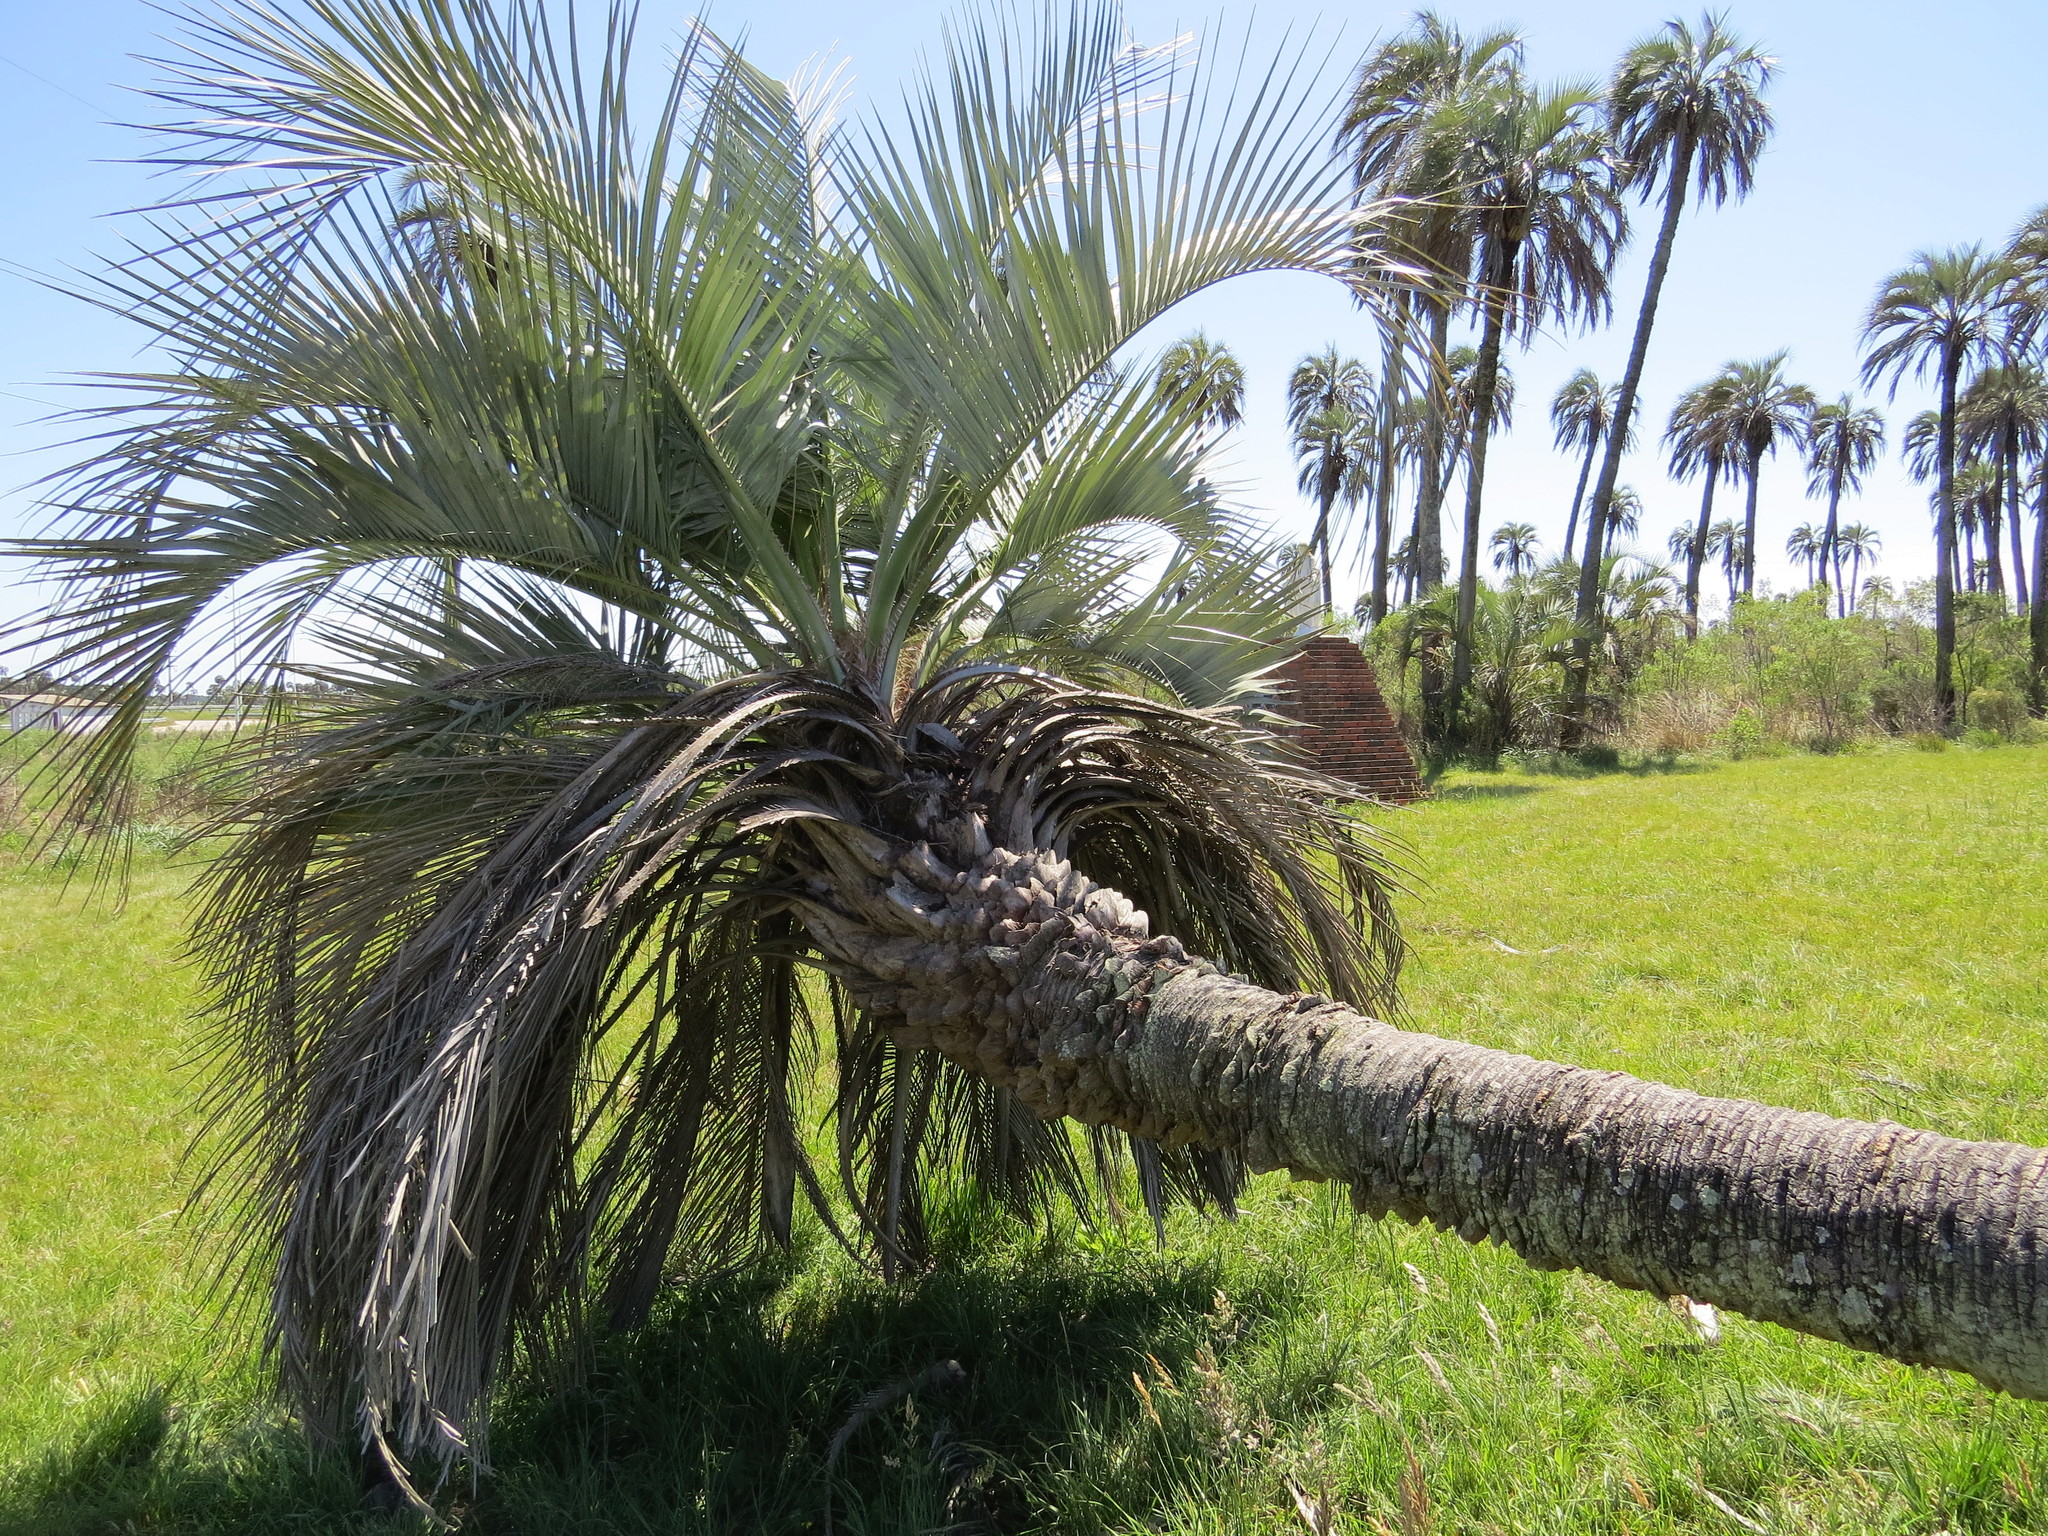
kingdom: Plantae
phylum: Tracheophyta
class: Liliopsida
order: Arecales
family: Arecaceae
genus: Butia
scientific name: Butia yatay
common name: Yatay palm
